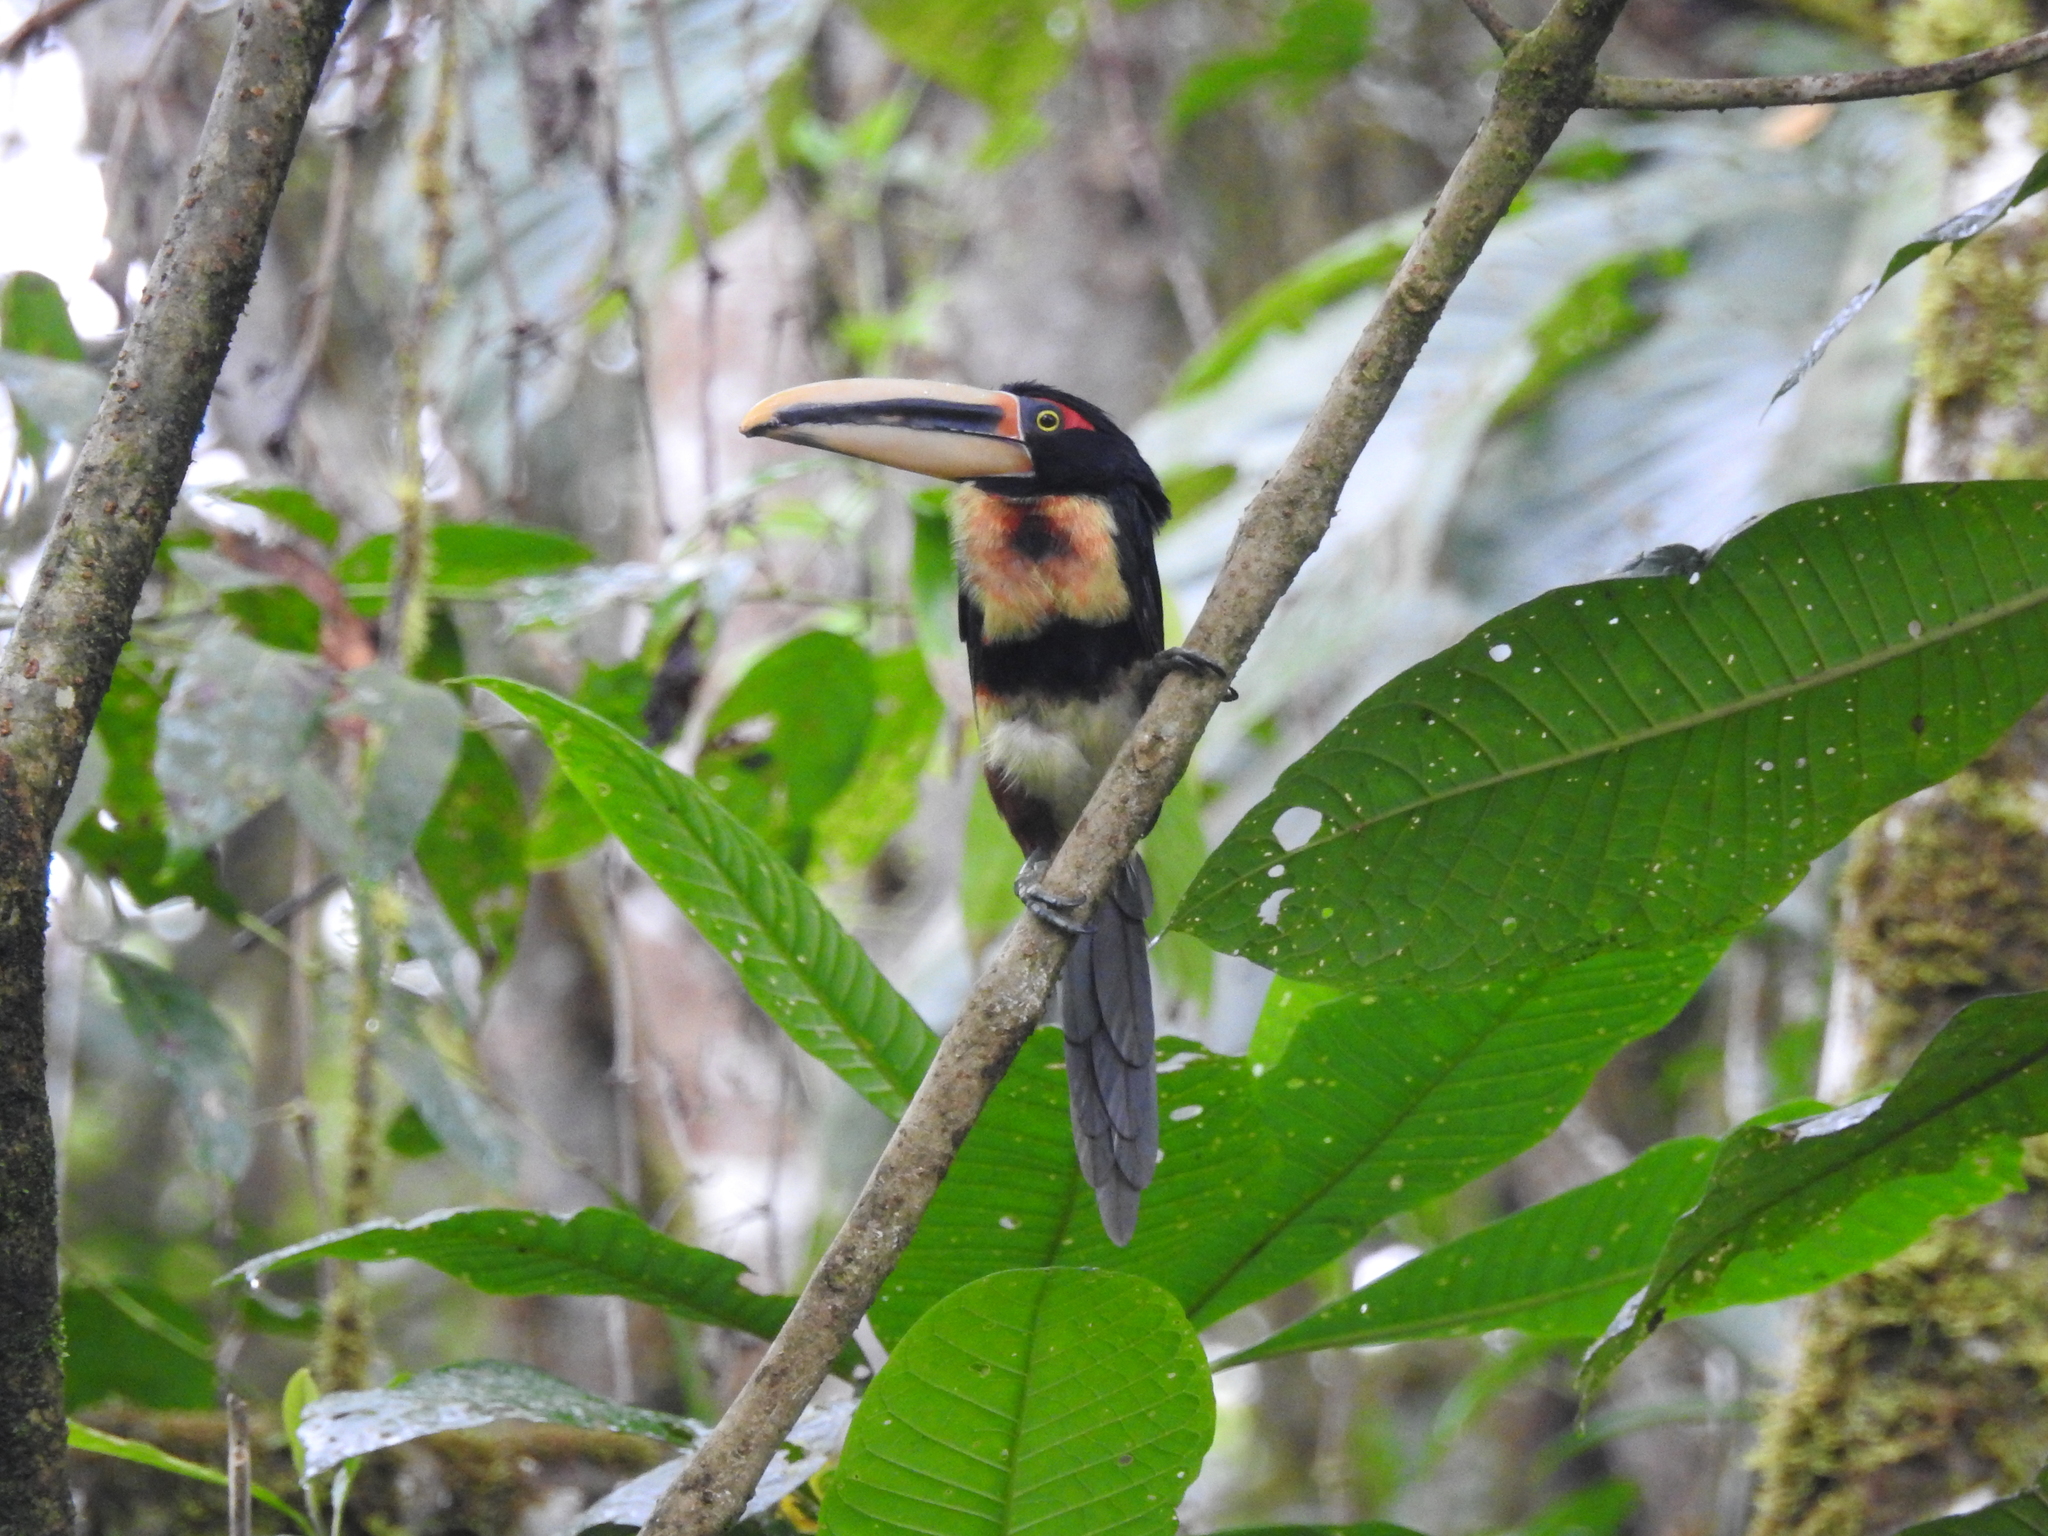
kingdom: Animalia
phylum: Chordata
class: Aves
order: Piciformes
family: Ramphastidae
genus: Pteroglossus
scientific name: Pteroglossus torquatus
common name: Collared aracari
